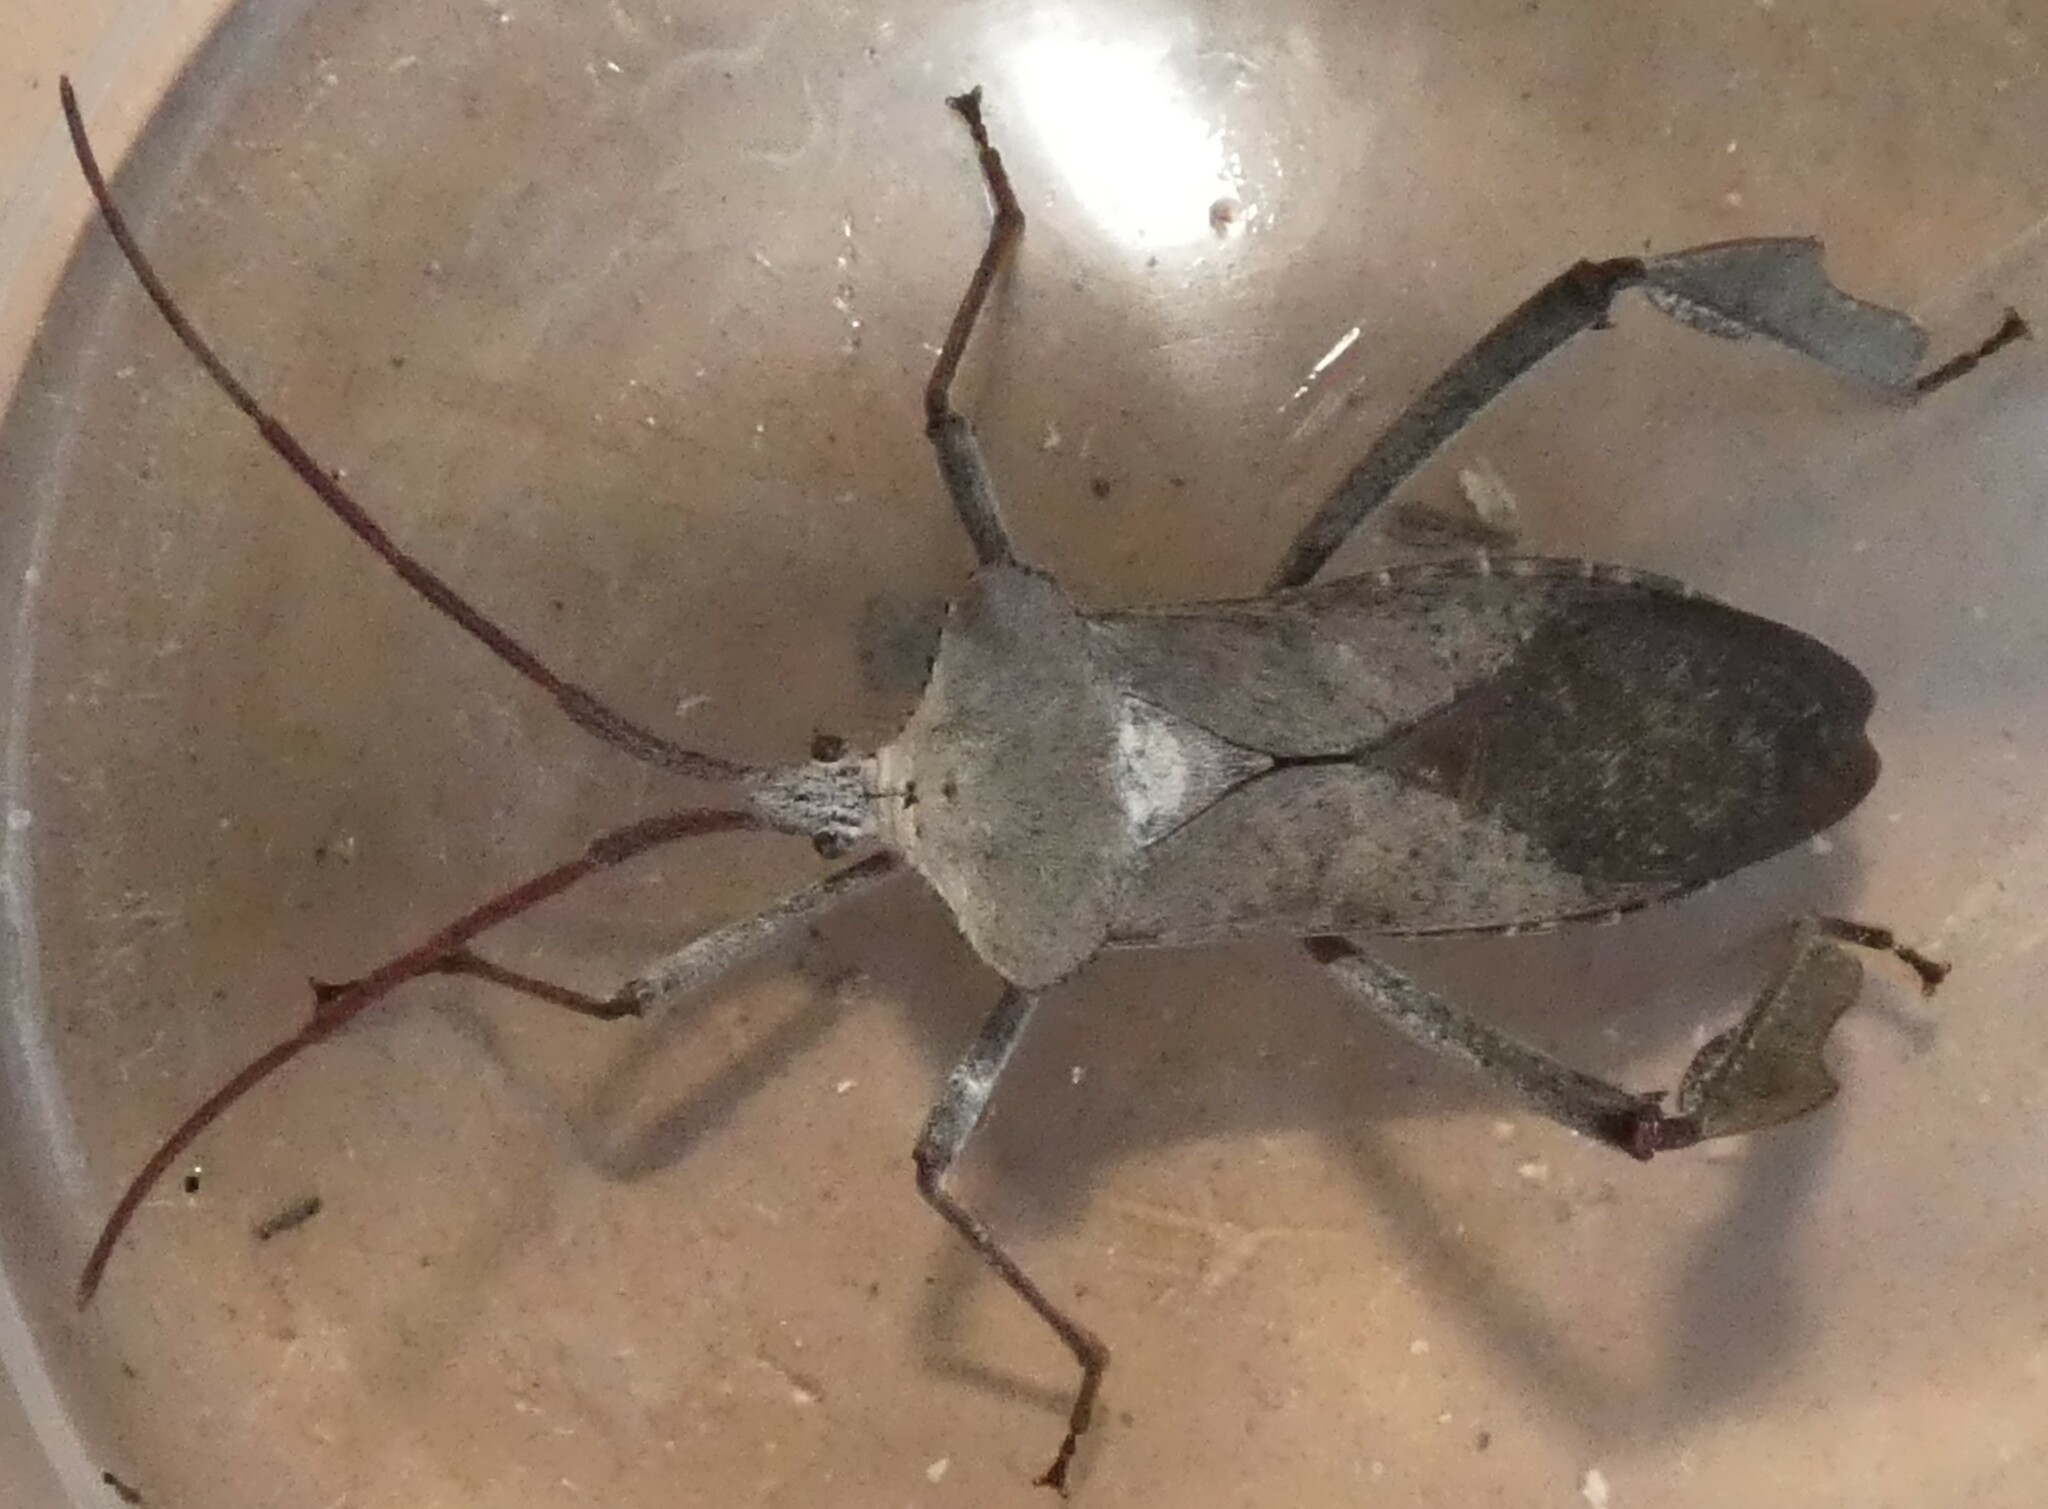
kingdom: Animalia
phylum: Arthropoda
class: Insecta
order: Hemiptera
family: Coreidae
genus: Acanthocephala
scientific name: Acanthocephala declivis
